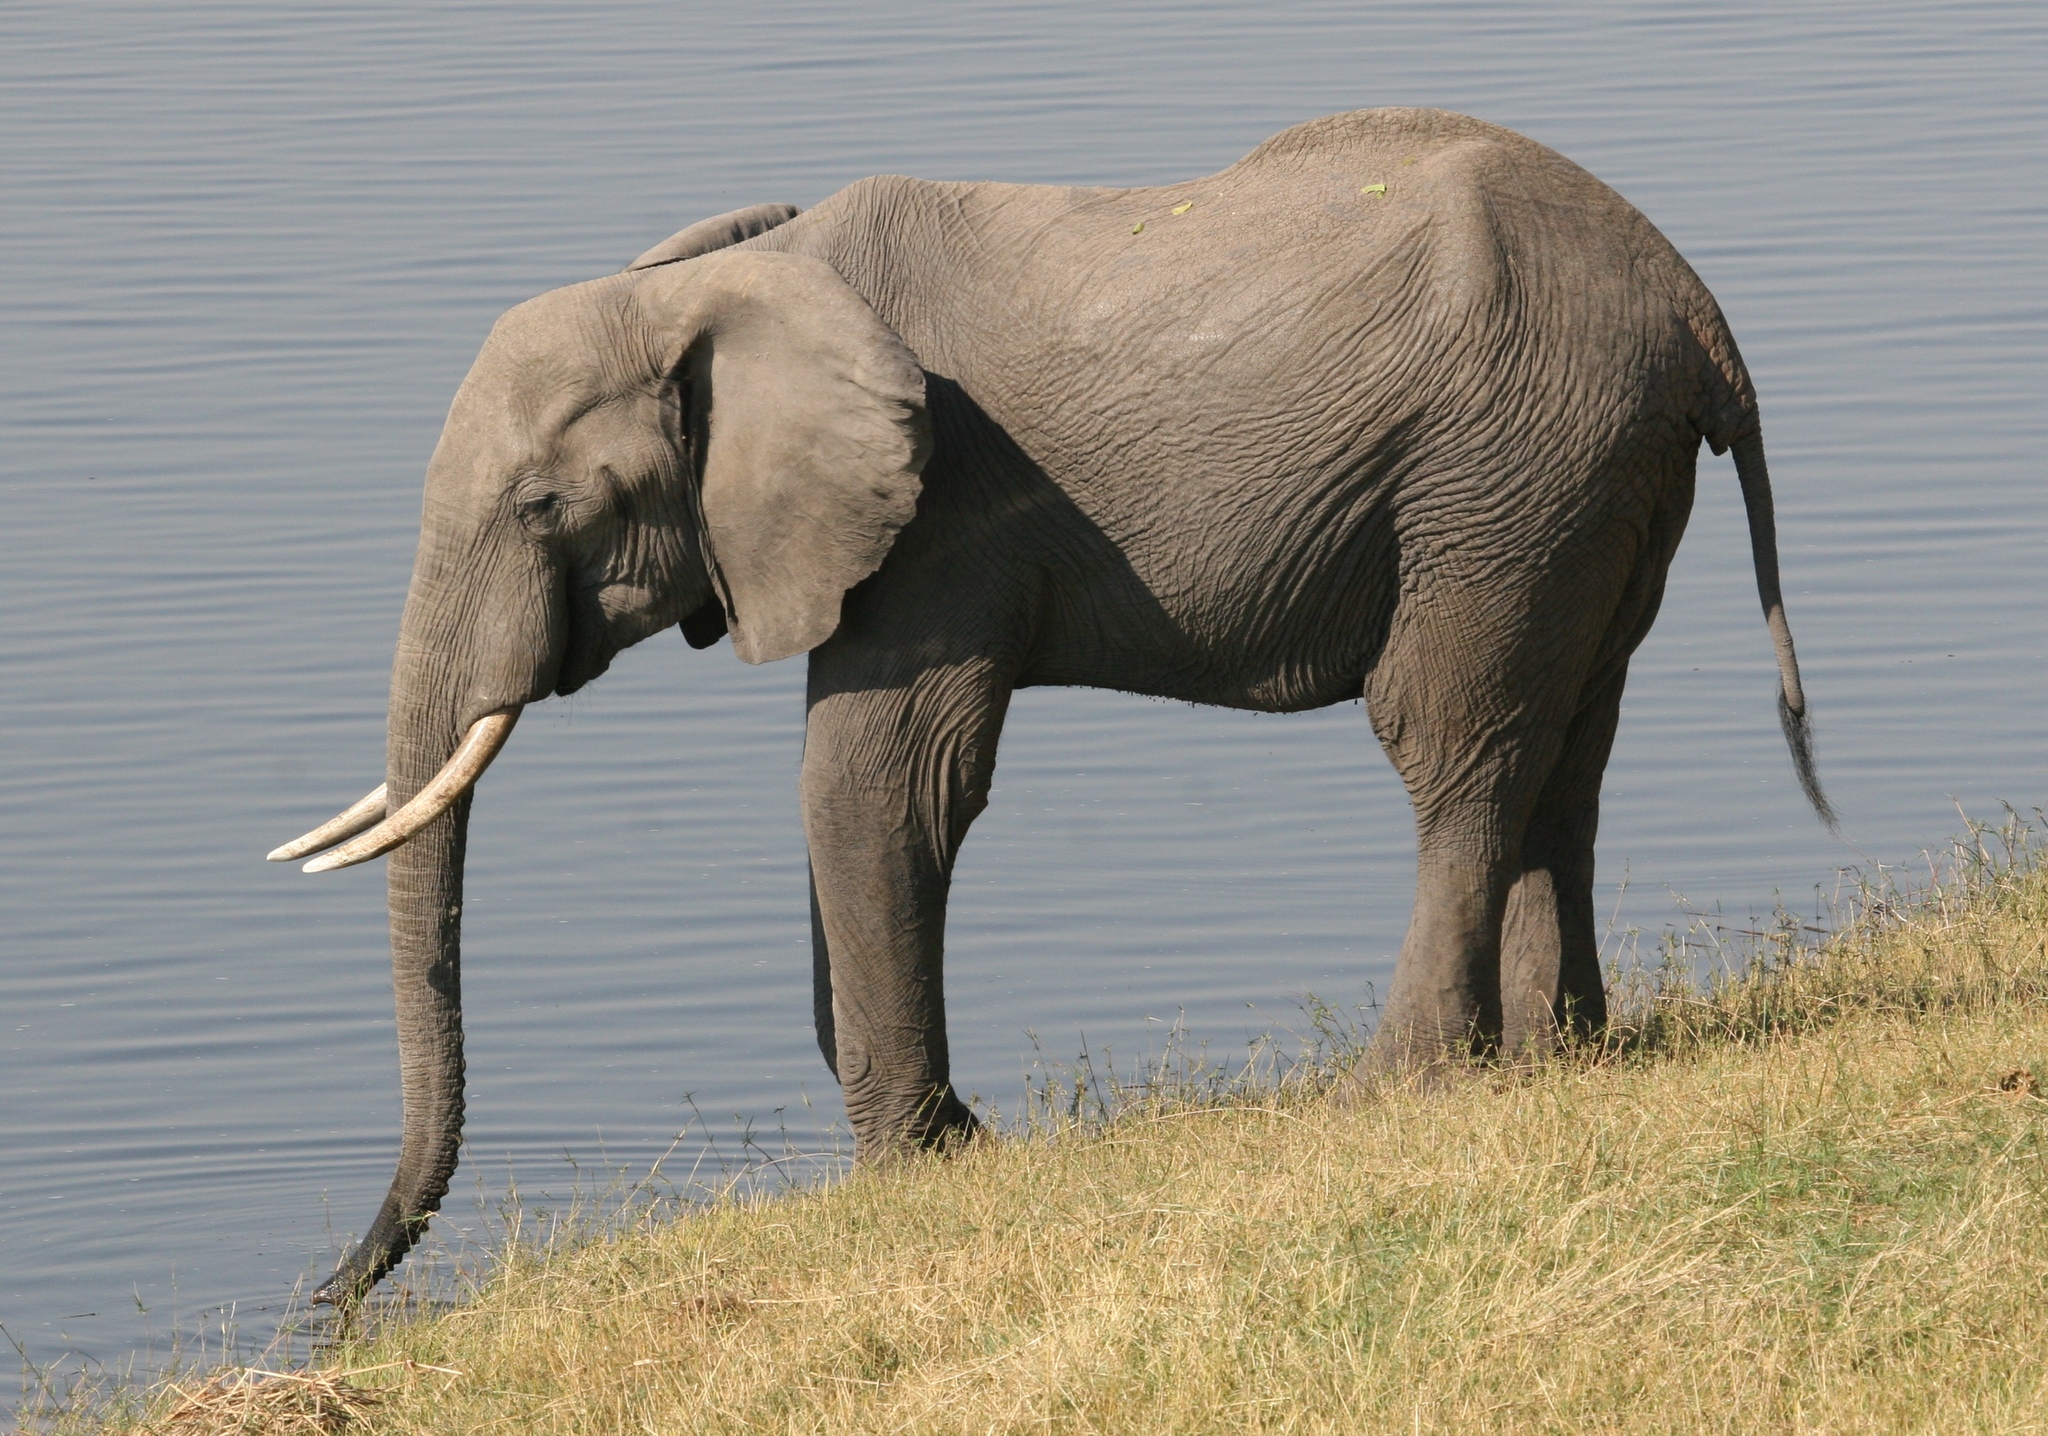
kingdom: Animalia
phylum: Chordata
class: Mammalia
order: Proboscidea
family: Elephantidae
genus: Loxodonta
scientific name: Loxodonta africana
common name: African elephant
